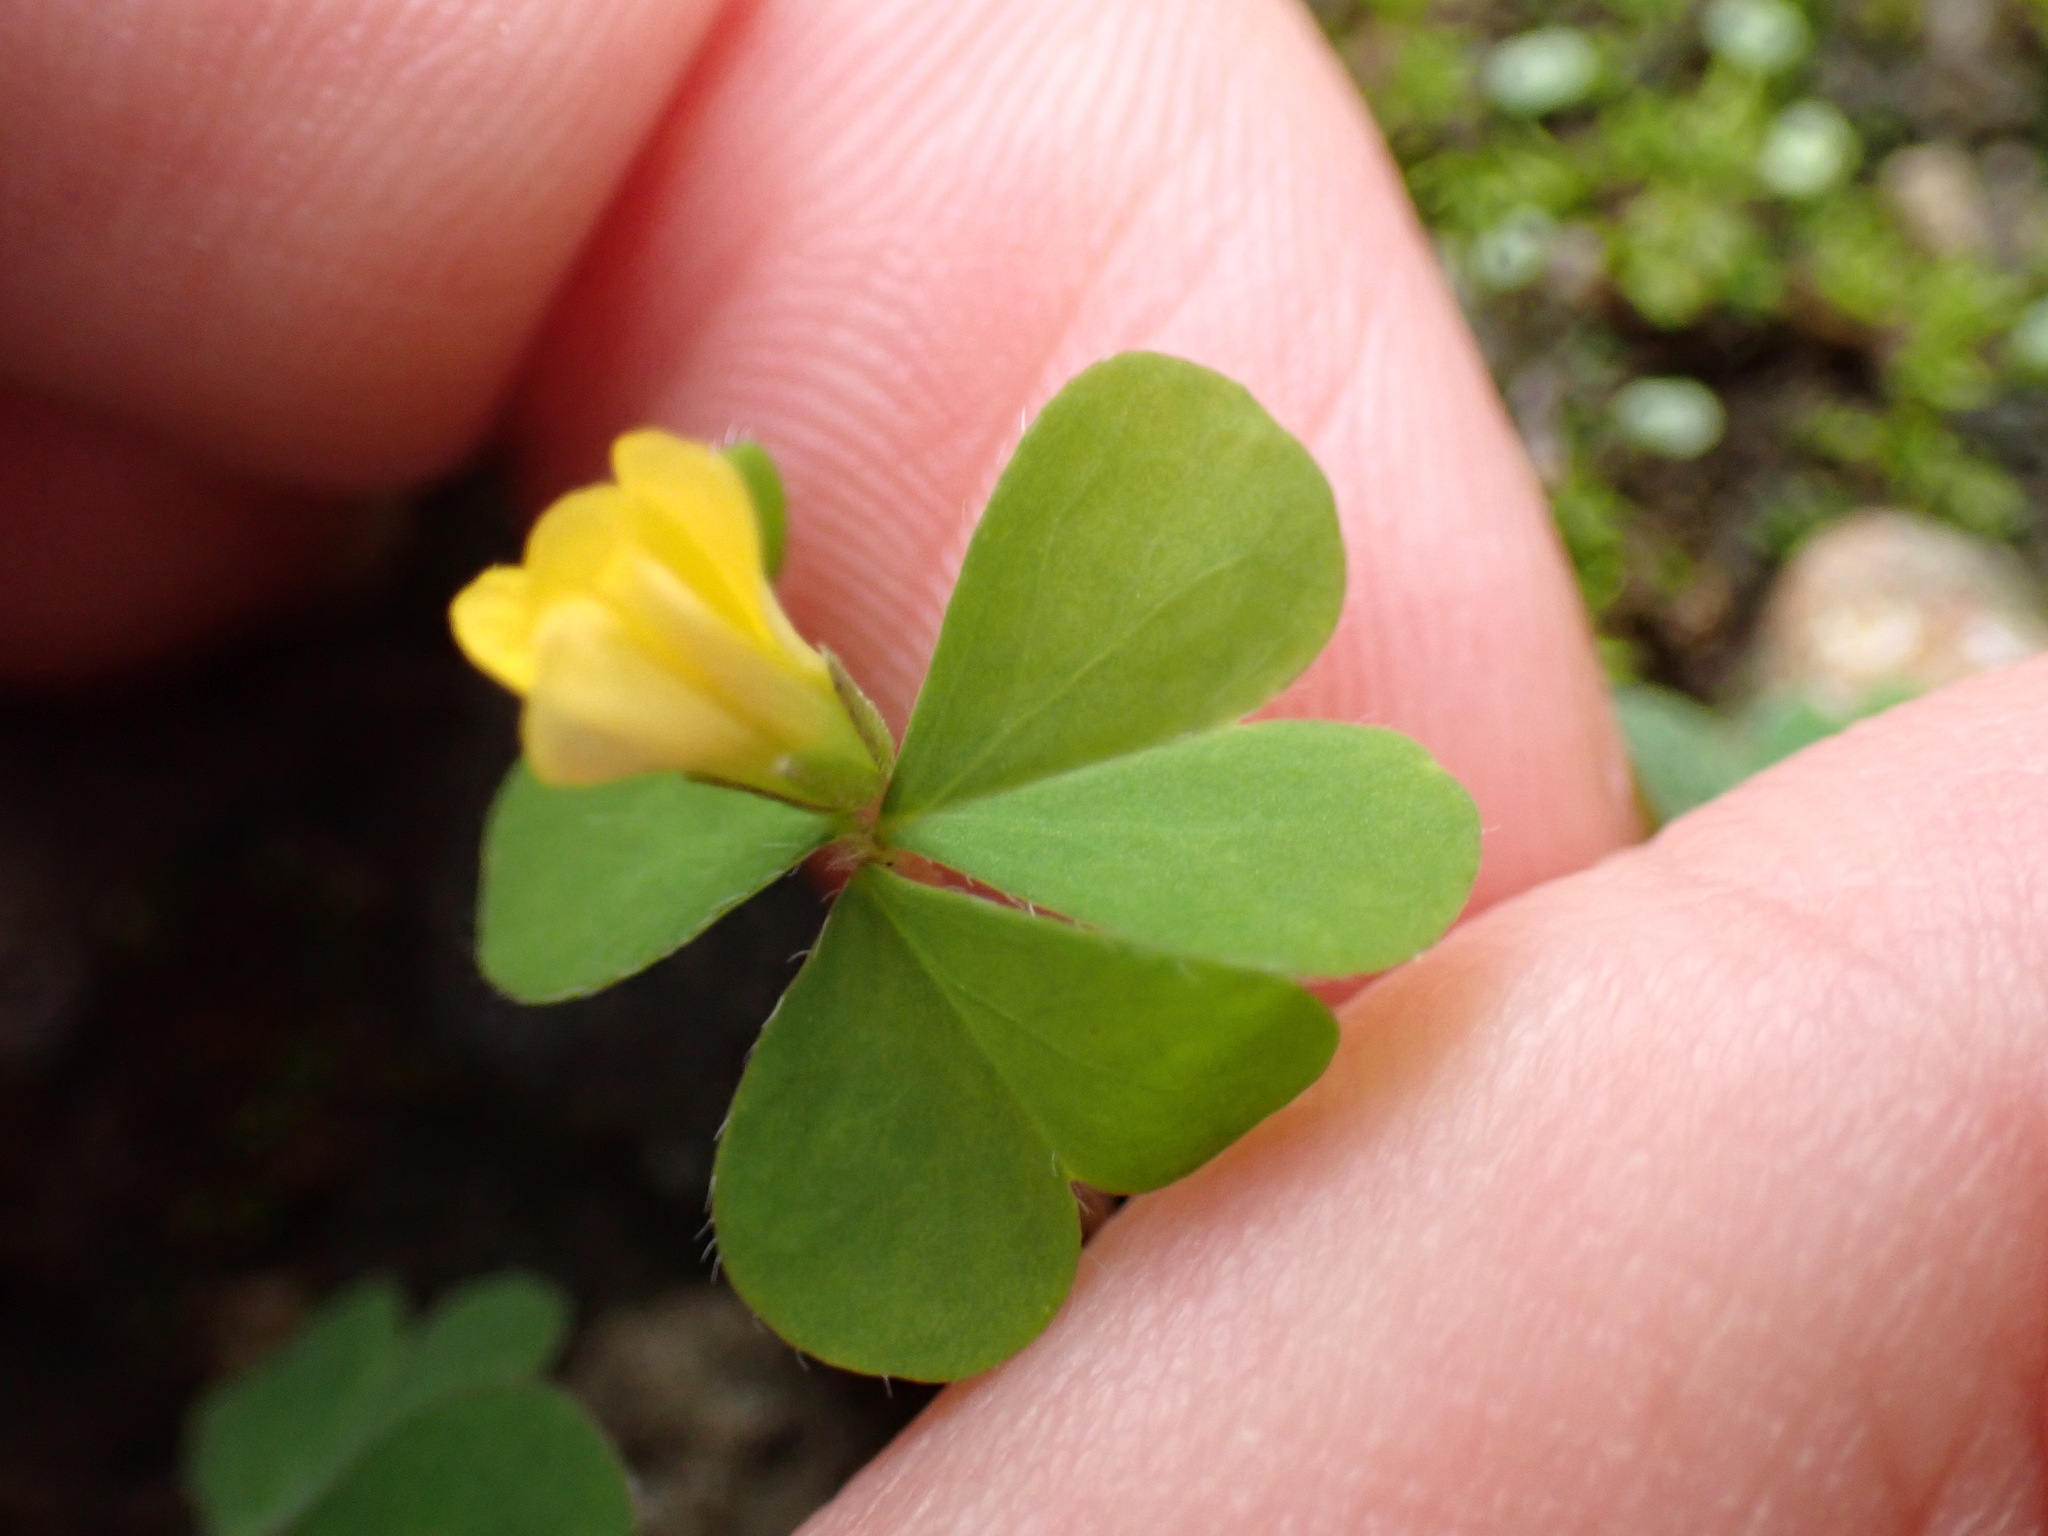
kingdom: Plantae
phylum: Tracheophyta
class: Magnoliopsida
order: Oxalidales
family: Oxalidaceae
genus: Oxalis
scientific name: Oxalis corniculata
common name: Procumbent yellow-sorrel
